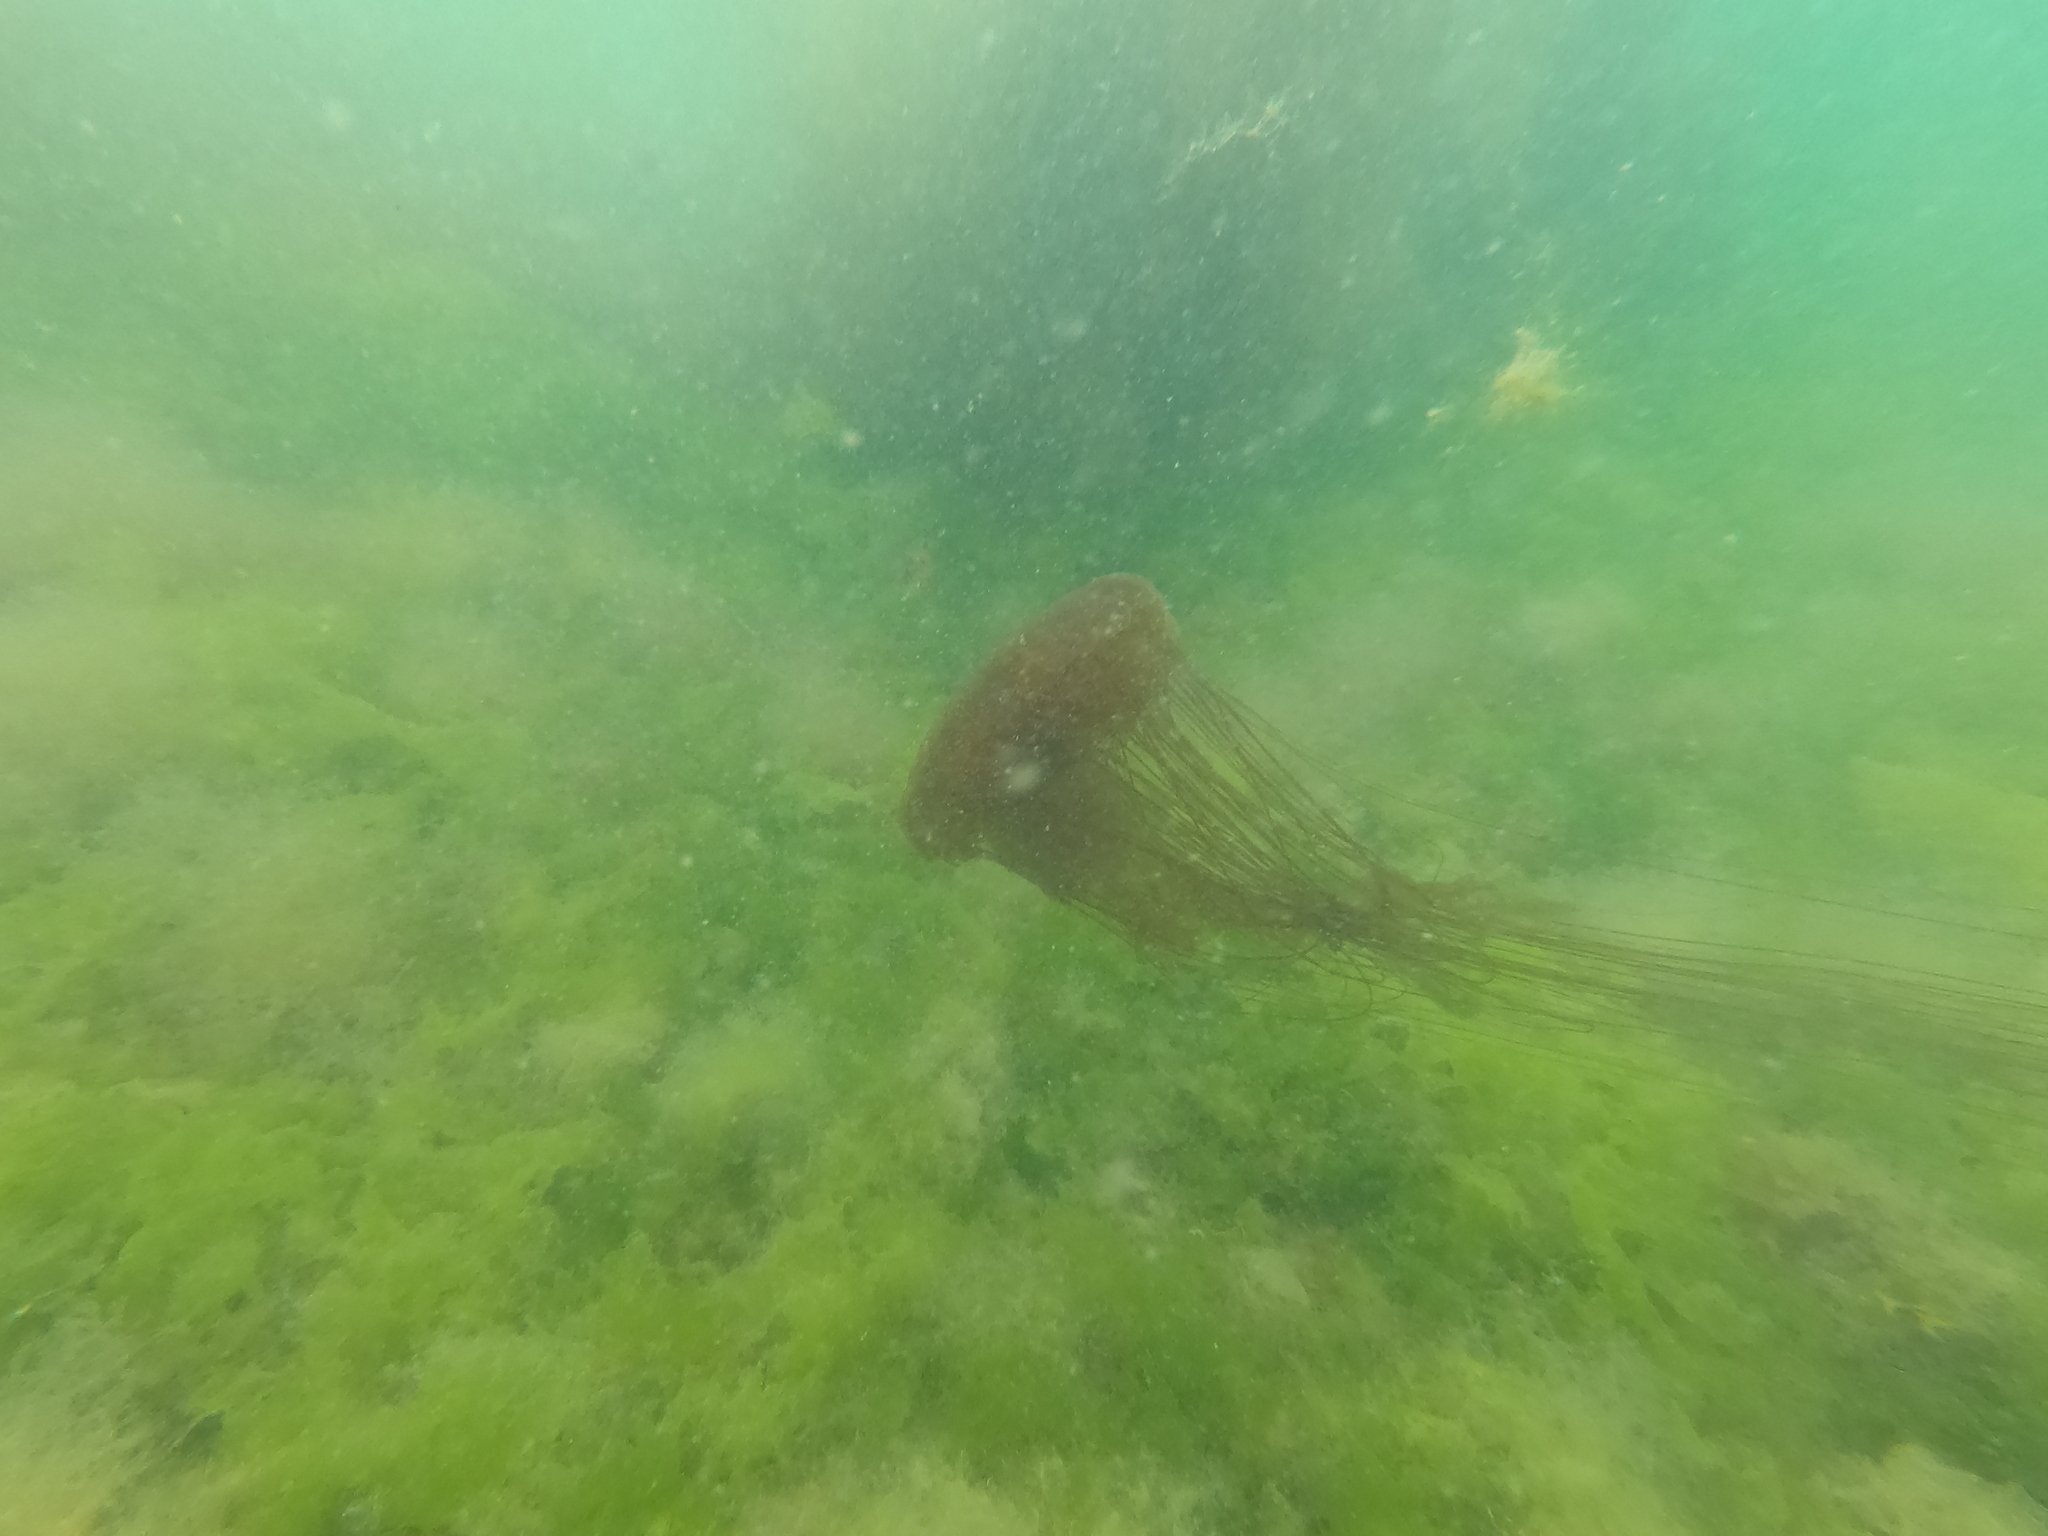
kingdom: Animalia
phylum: Cnidaria
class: Scyphozoa
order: Semaeostomeae
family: Cyaneidae
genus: Desmonema
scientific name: Desmonema gaudichaudi
